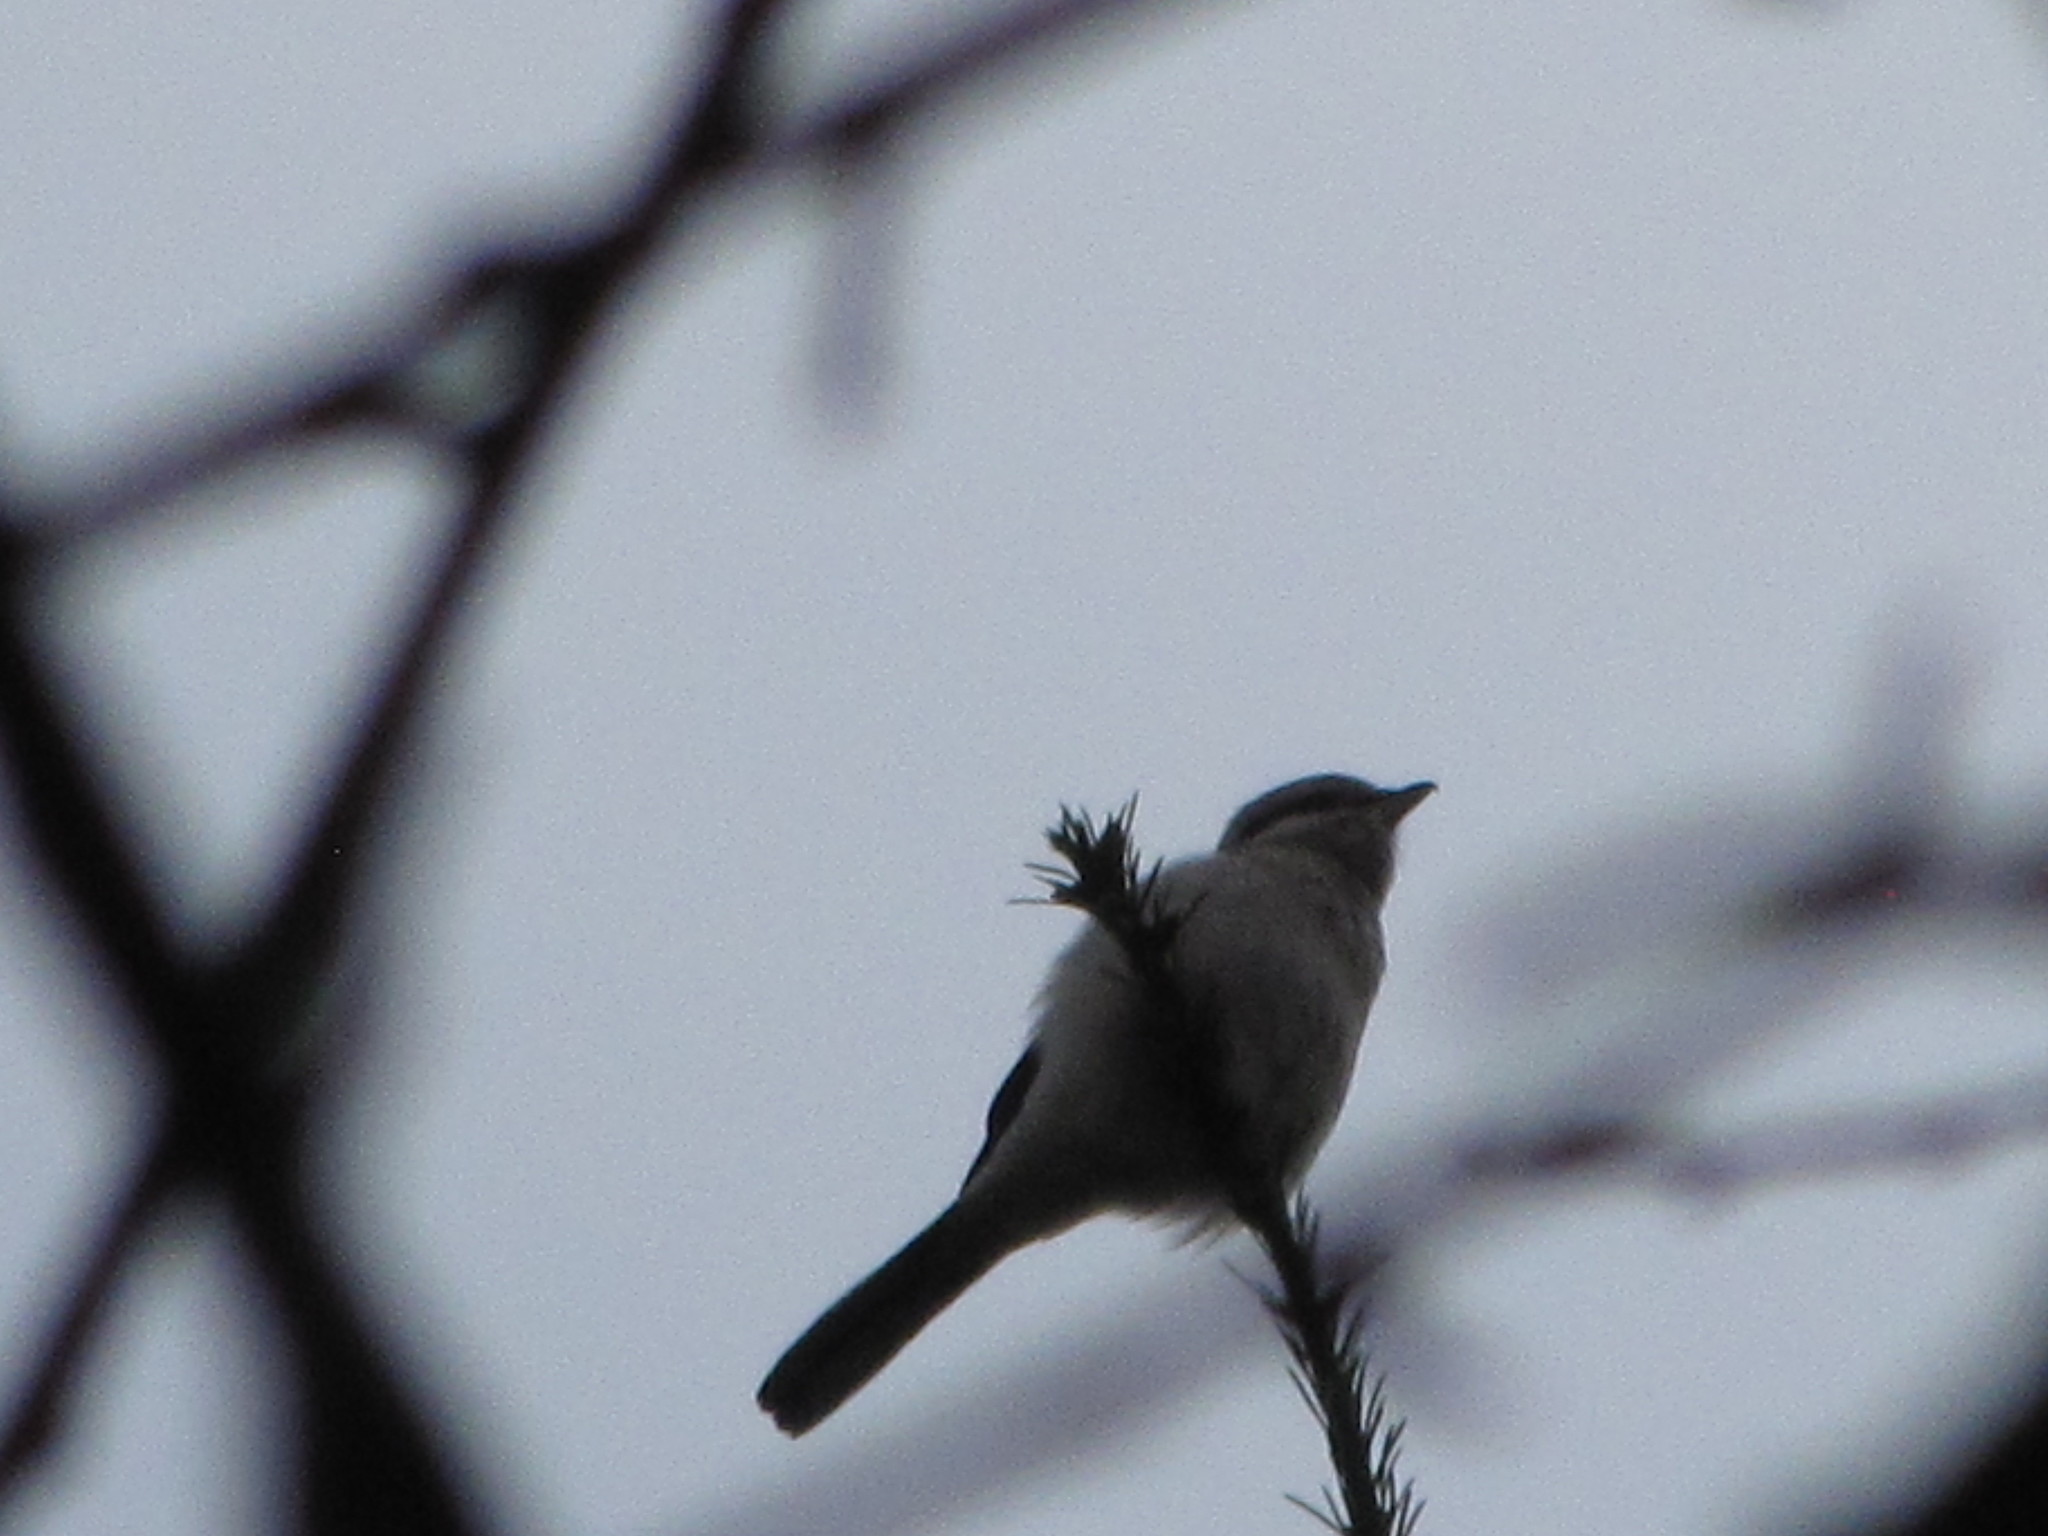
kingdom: Animalia
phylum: Chordata
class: Aves
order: Passeriformes
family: Laniidae
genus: Lanius
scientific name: Lanius borealis
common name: Northern shrike
